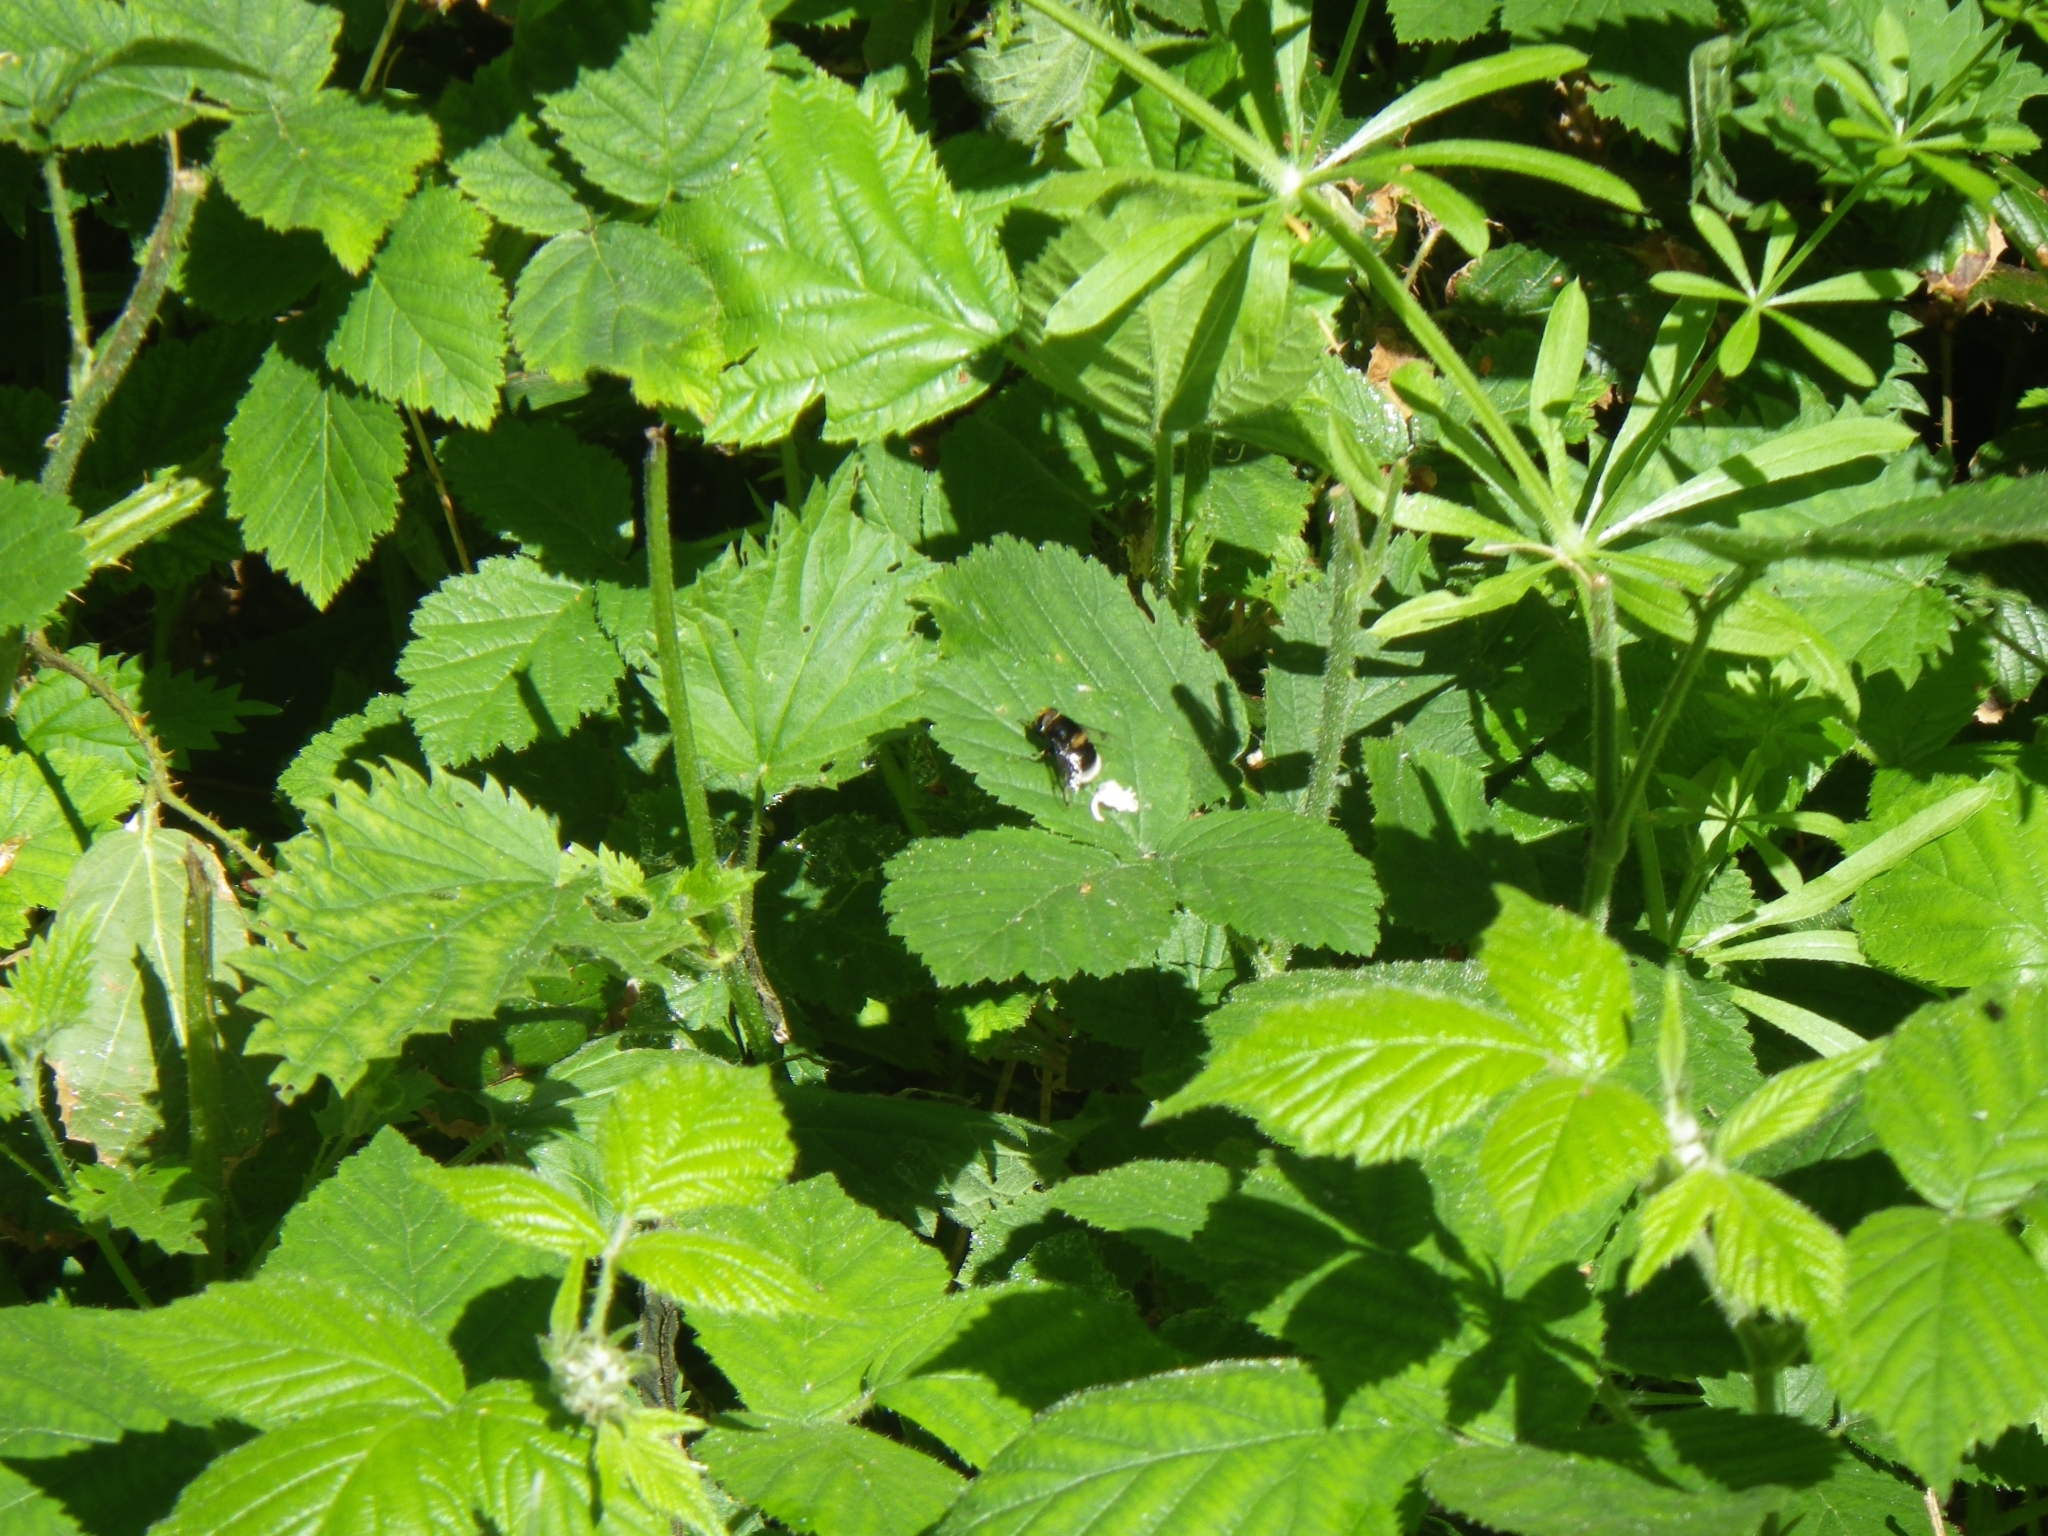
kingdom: Animalia
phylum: Arthropoda
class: Insecta
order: Diptera
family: Syrphidae
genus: Eristalis
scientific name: Eristalis intricaria
